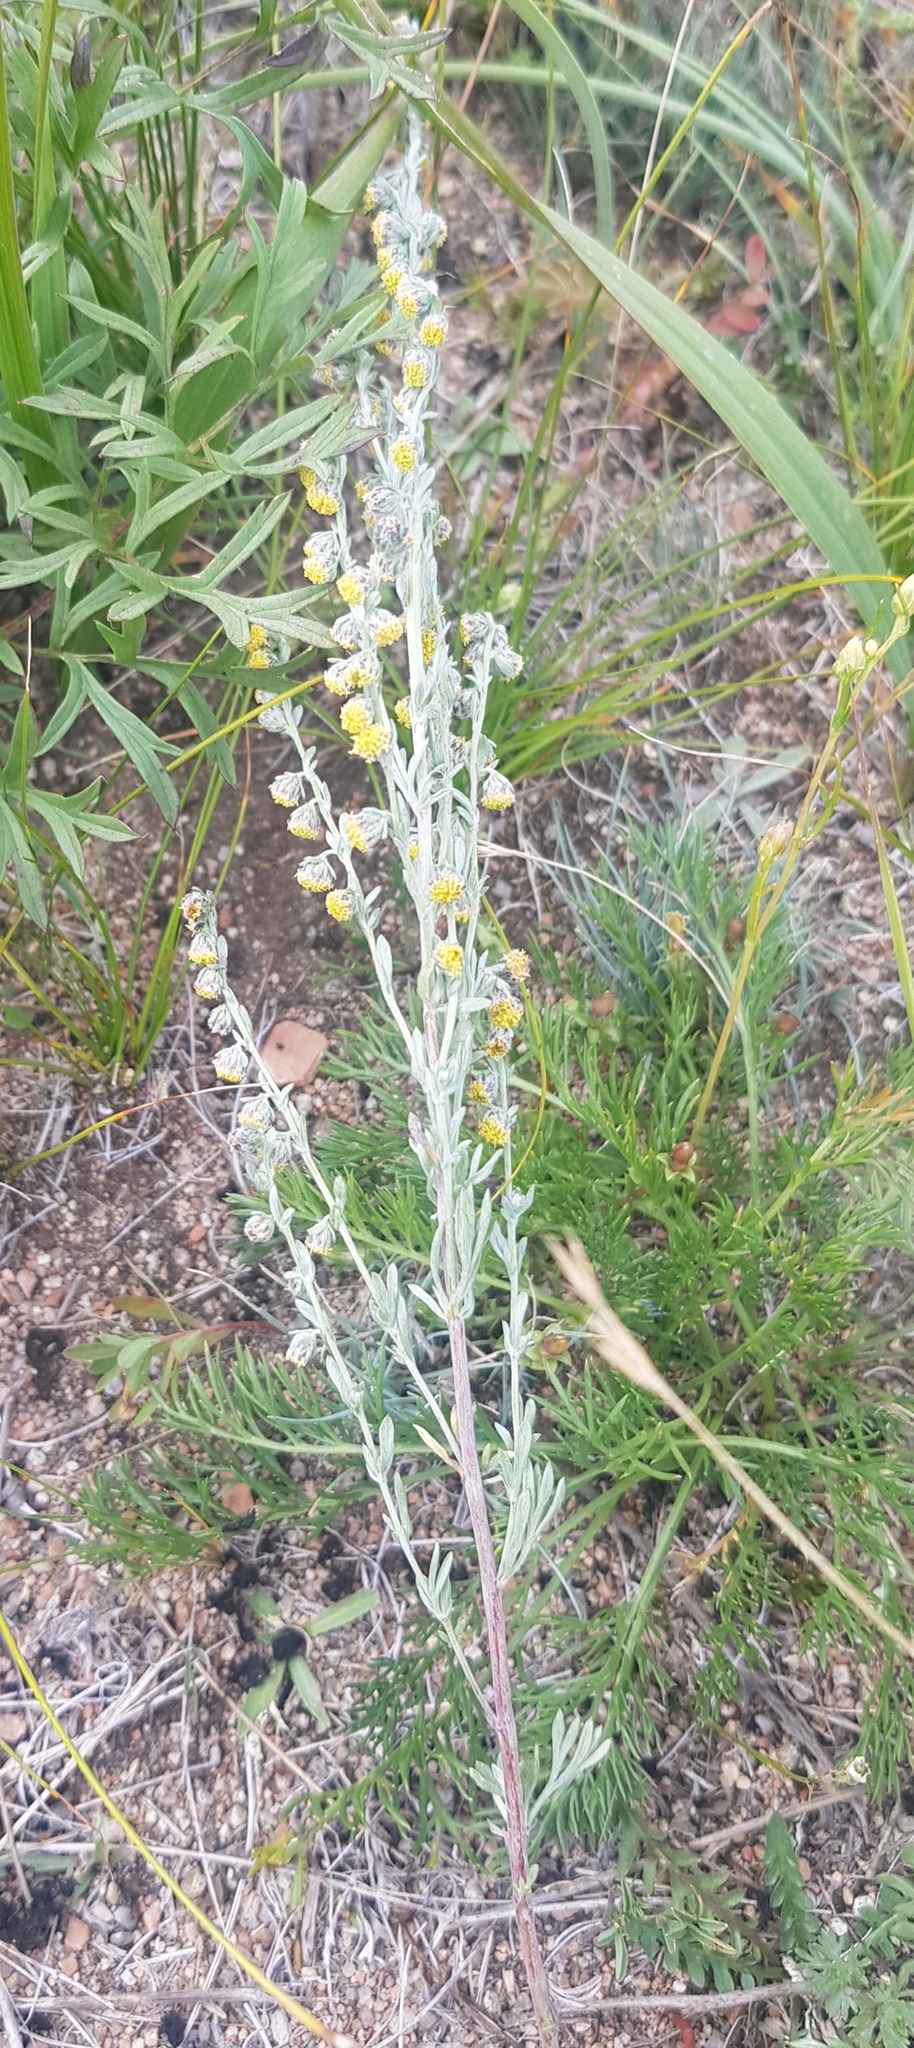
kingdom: Plantae
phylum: Tracheophyta
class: Magnoliopsida
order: Asterales
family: Asteraceae
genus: Artemisia
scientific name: Artemisia frigida
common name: Prairie sagewort
